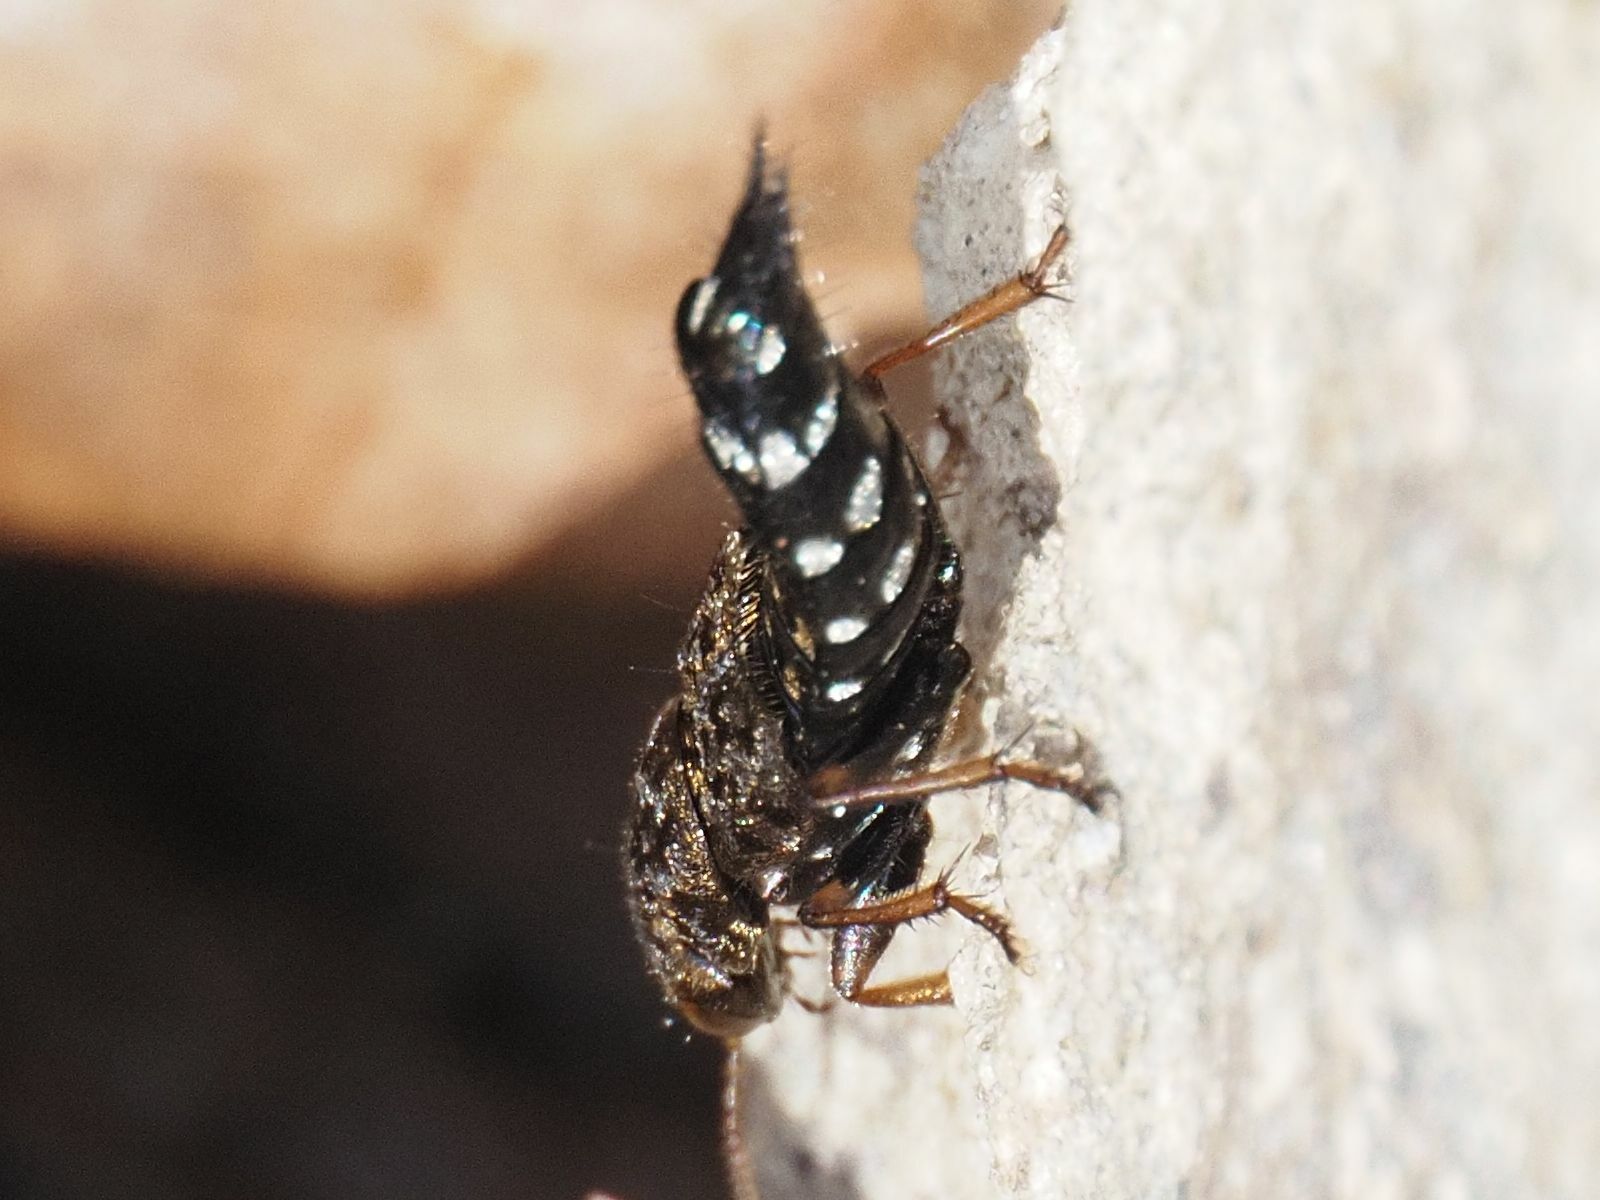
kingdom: Animalia
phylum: Arthropoda
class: Insecta
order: Coleoptera
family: Staphylinidae
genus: Ontholestes
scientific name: Ontholestes haroldi
